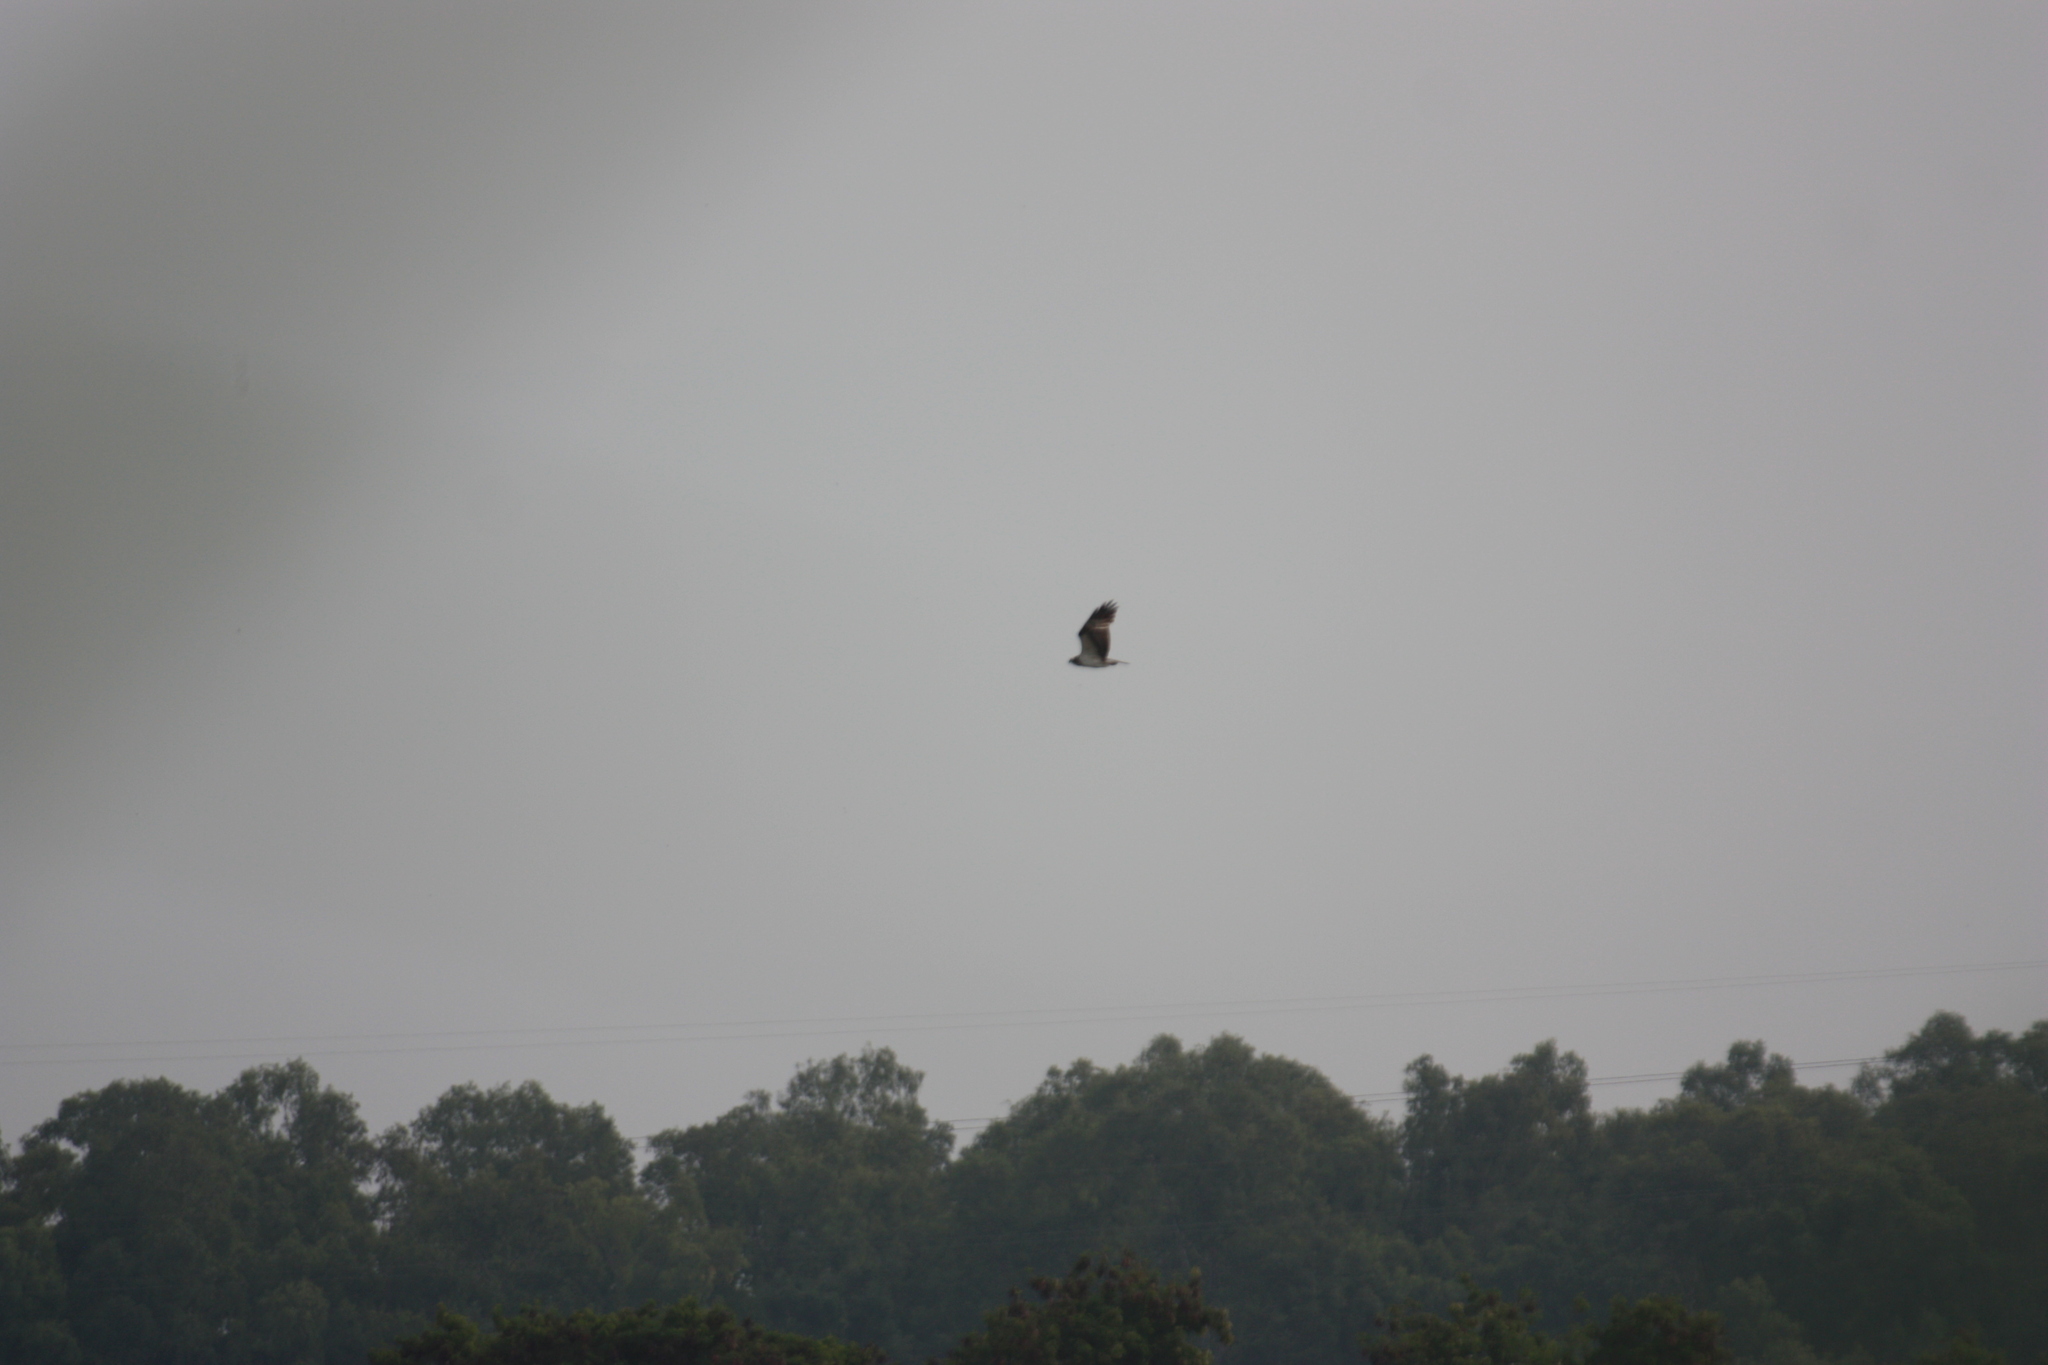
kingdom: Animalia
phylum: Chordata
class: Aves
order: Accipitriformes
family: Pandionidae
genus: Pandion
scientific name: Pandion haliaetus
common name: Osprey
